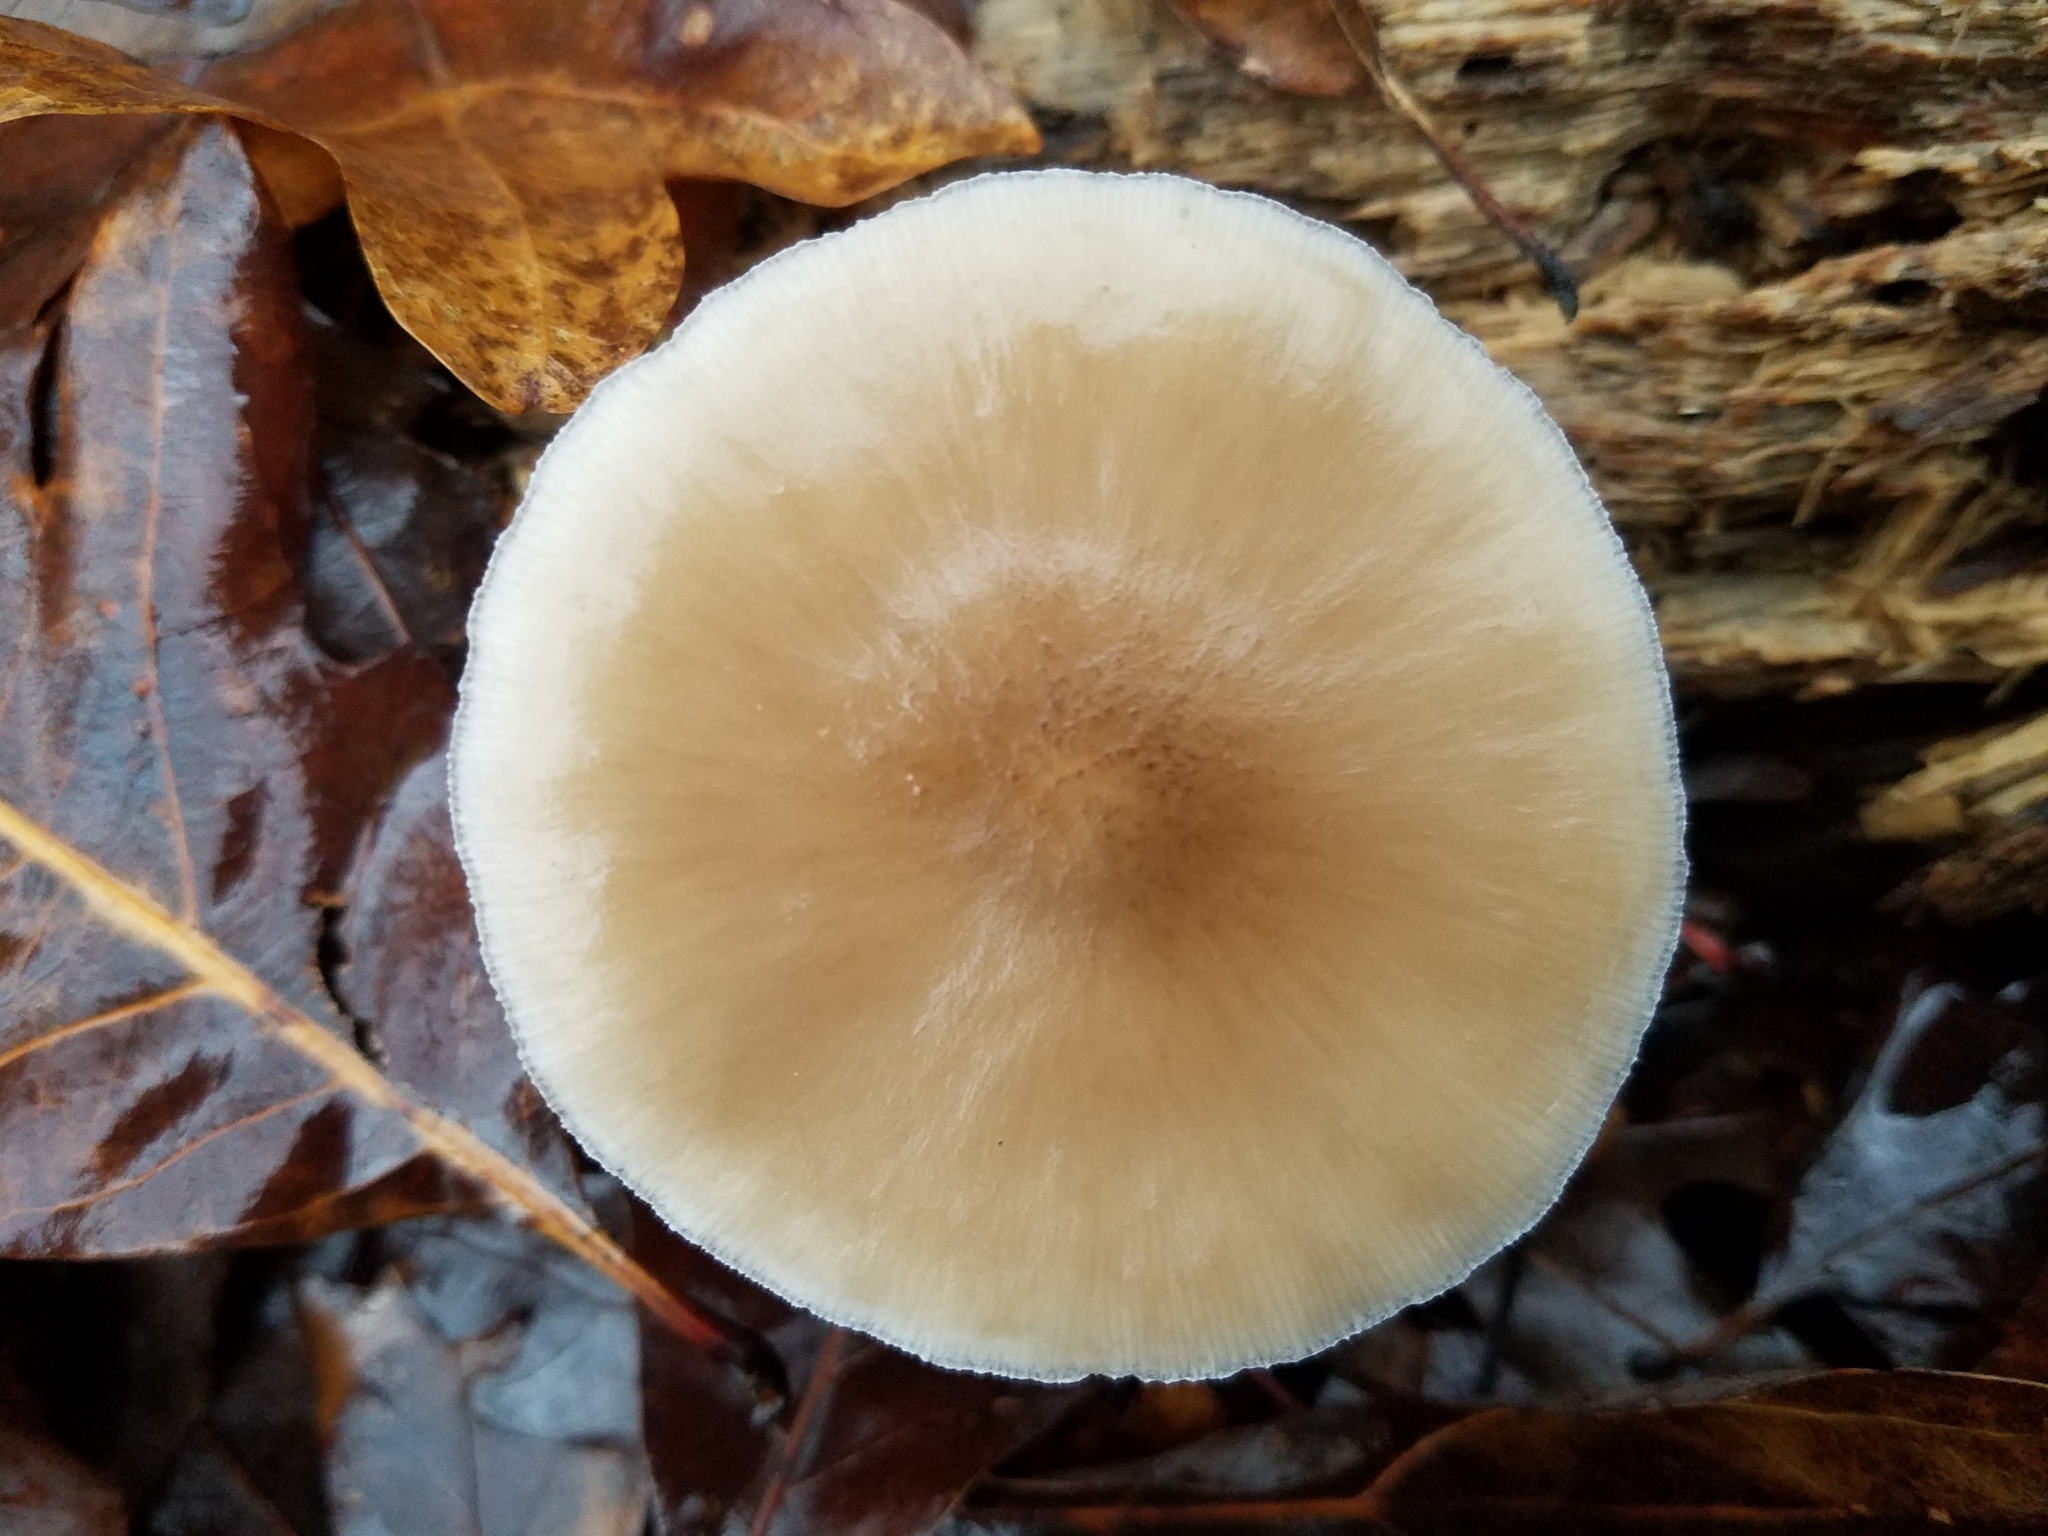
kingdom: Fungi
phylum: Basidiomycota
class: Agaricomycetes
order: Agaricales
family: Pluteaceae
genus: Pluteus
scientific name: Pluteus petasatus
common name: Scaly shield
